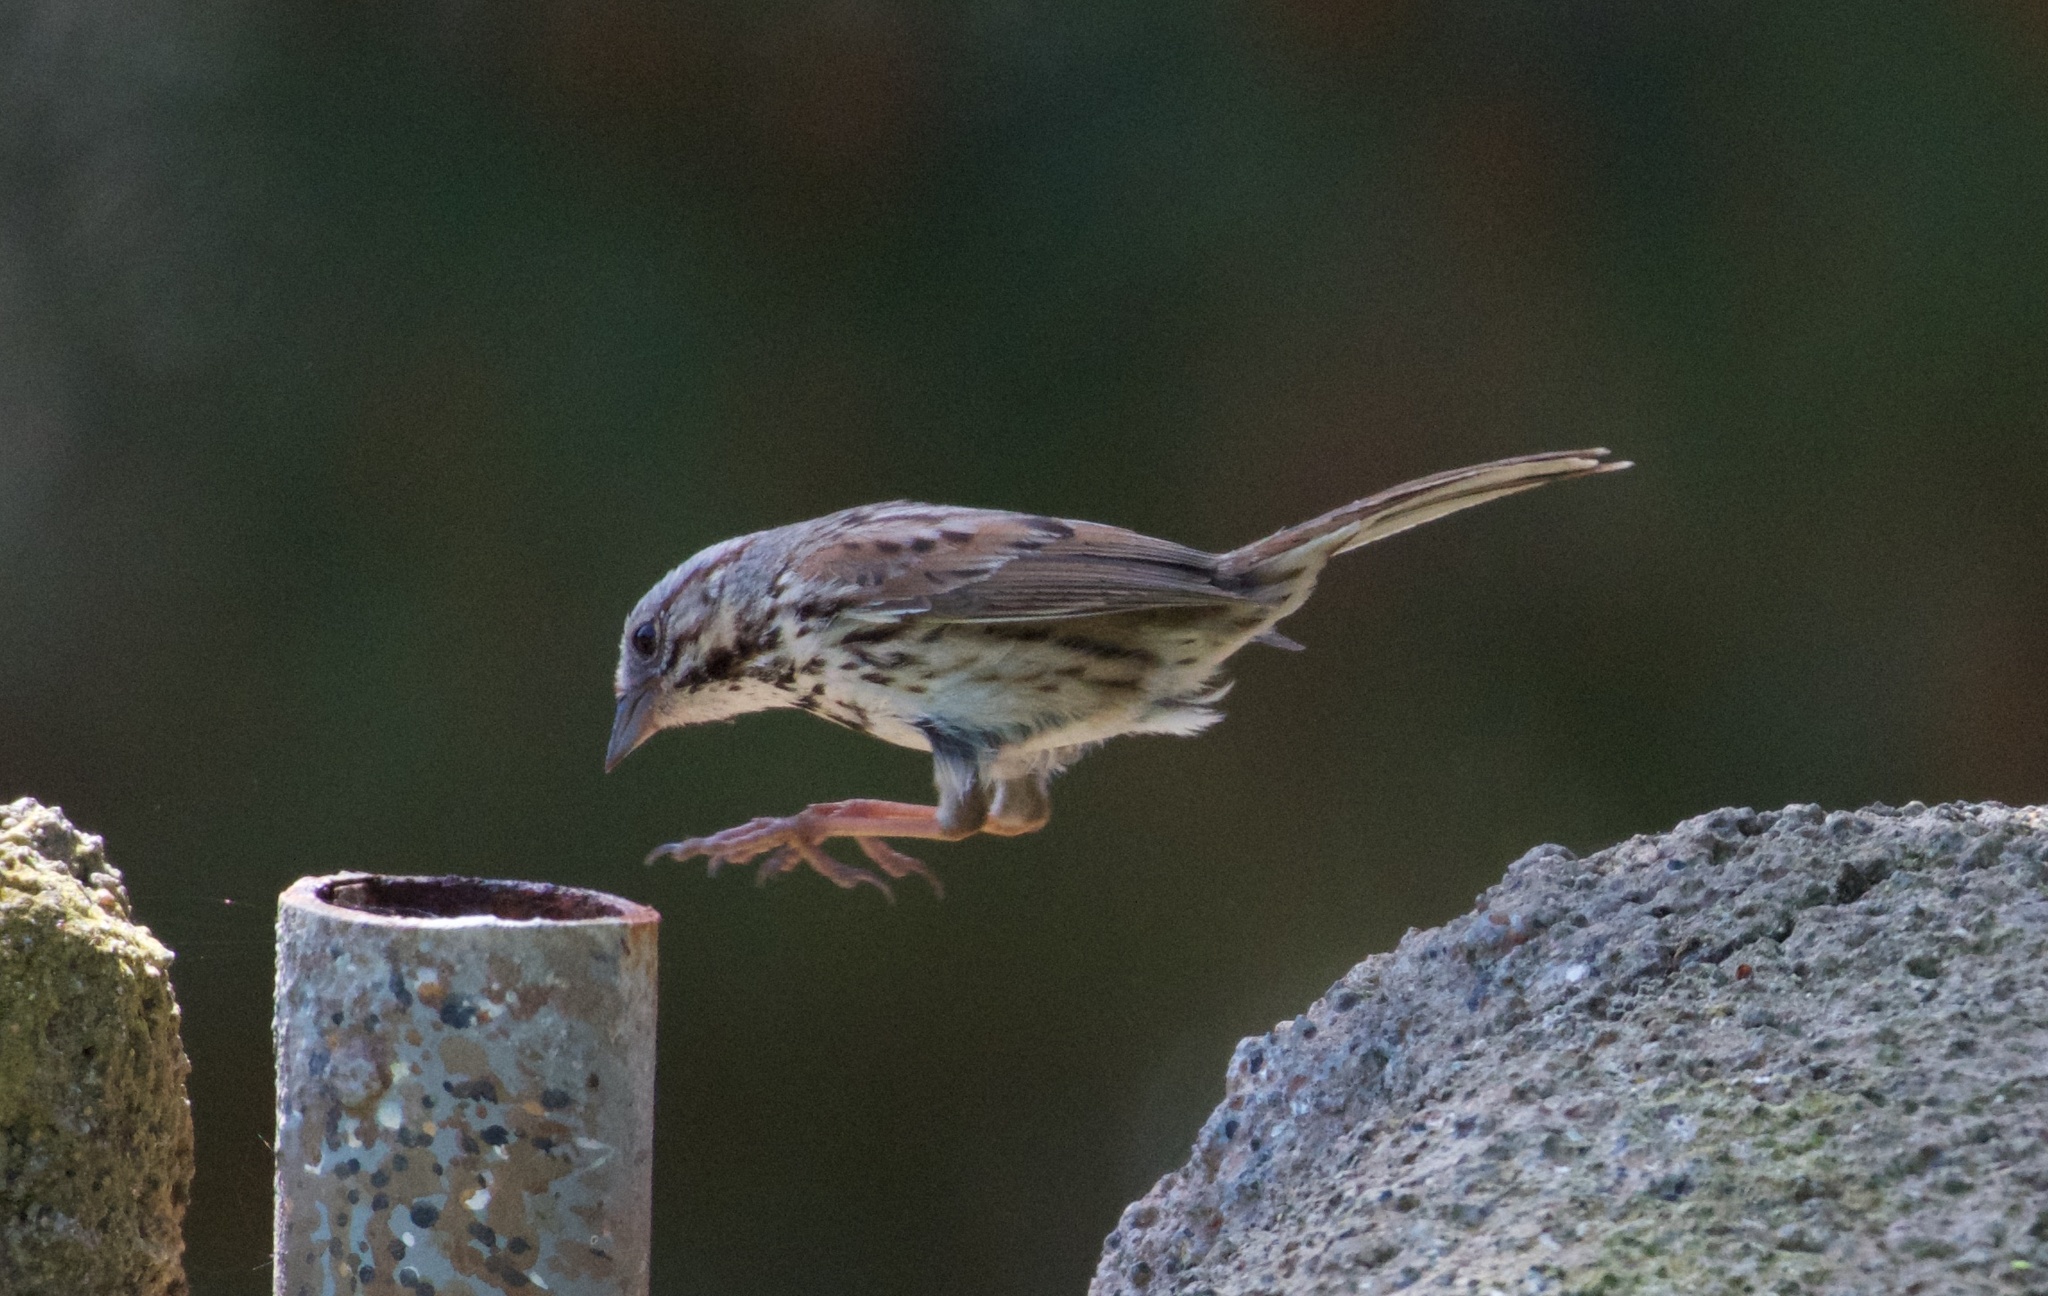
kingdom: Animalia
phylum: Chordata
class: Aves
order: Passeriformes
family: Passerellidae
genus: Melospiza
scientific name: Melospiza melodia
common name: Song sparrow
